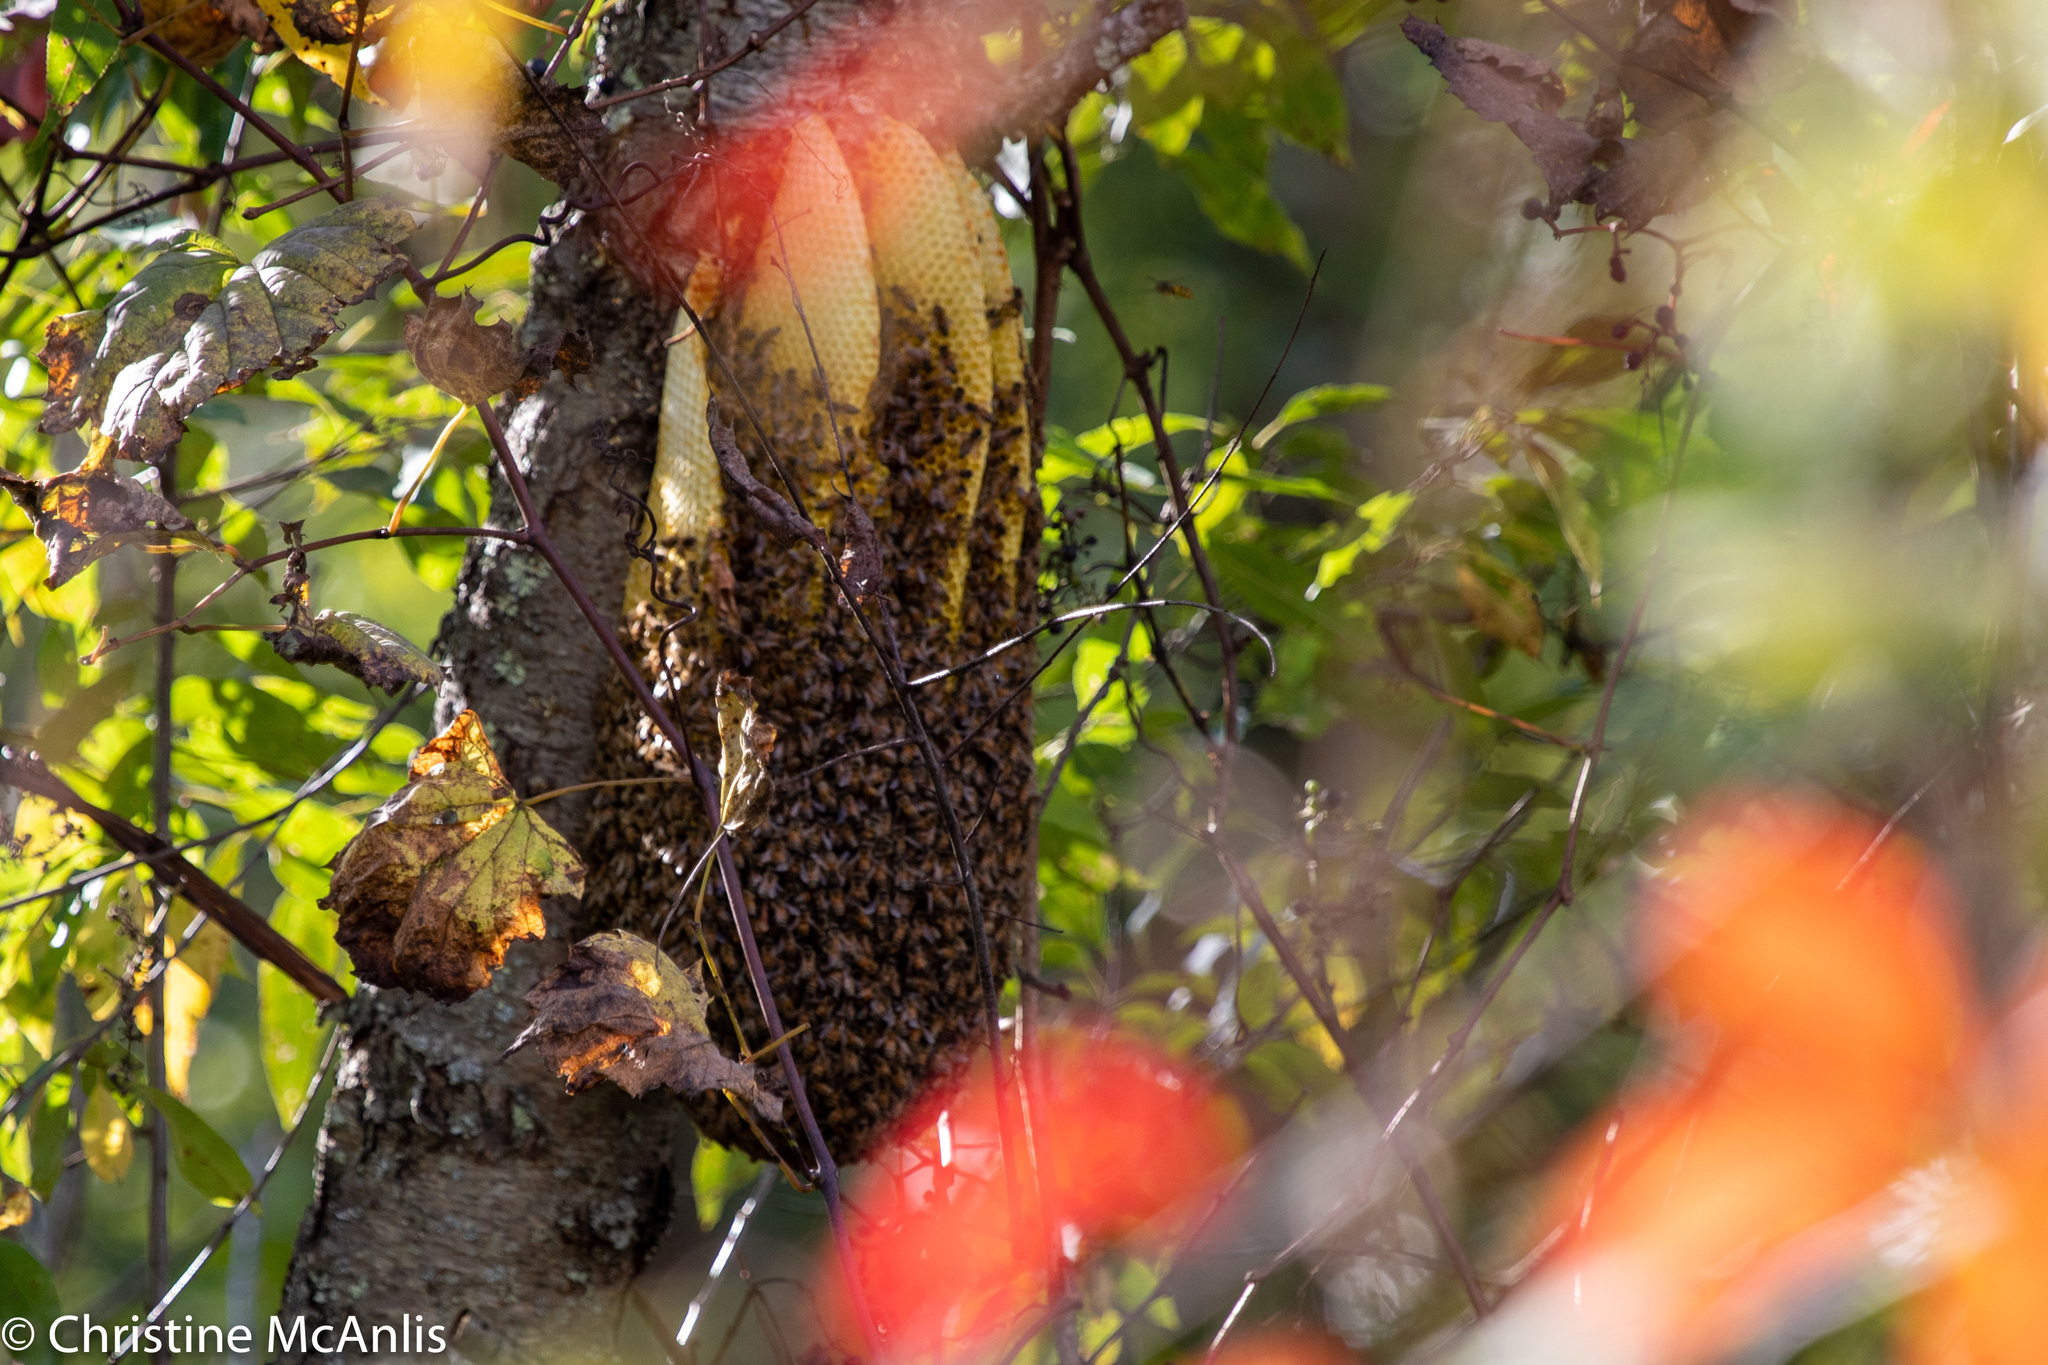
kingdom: Animalia
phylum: Arthropoda
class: Insecta
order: Hymenoptera
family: Apidae
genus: Apis
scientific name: Apis mellifera
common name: Honey bee
